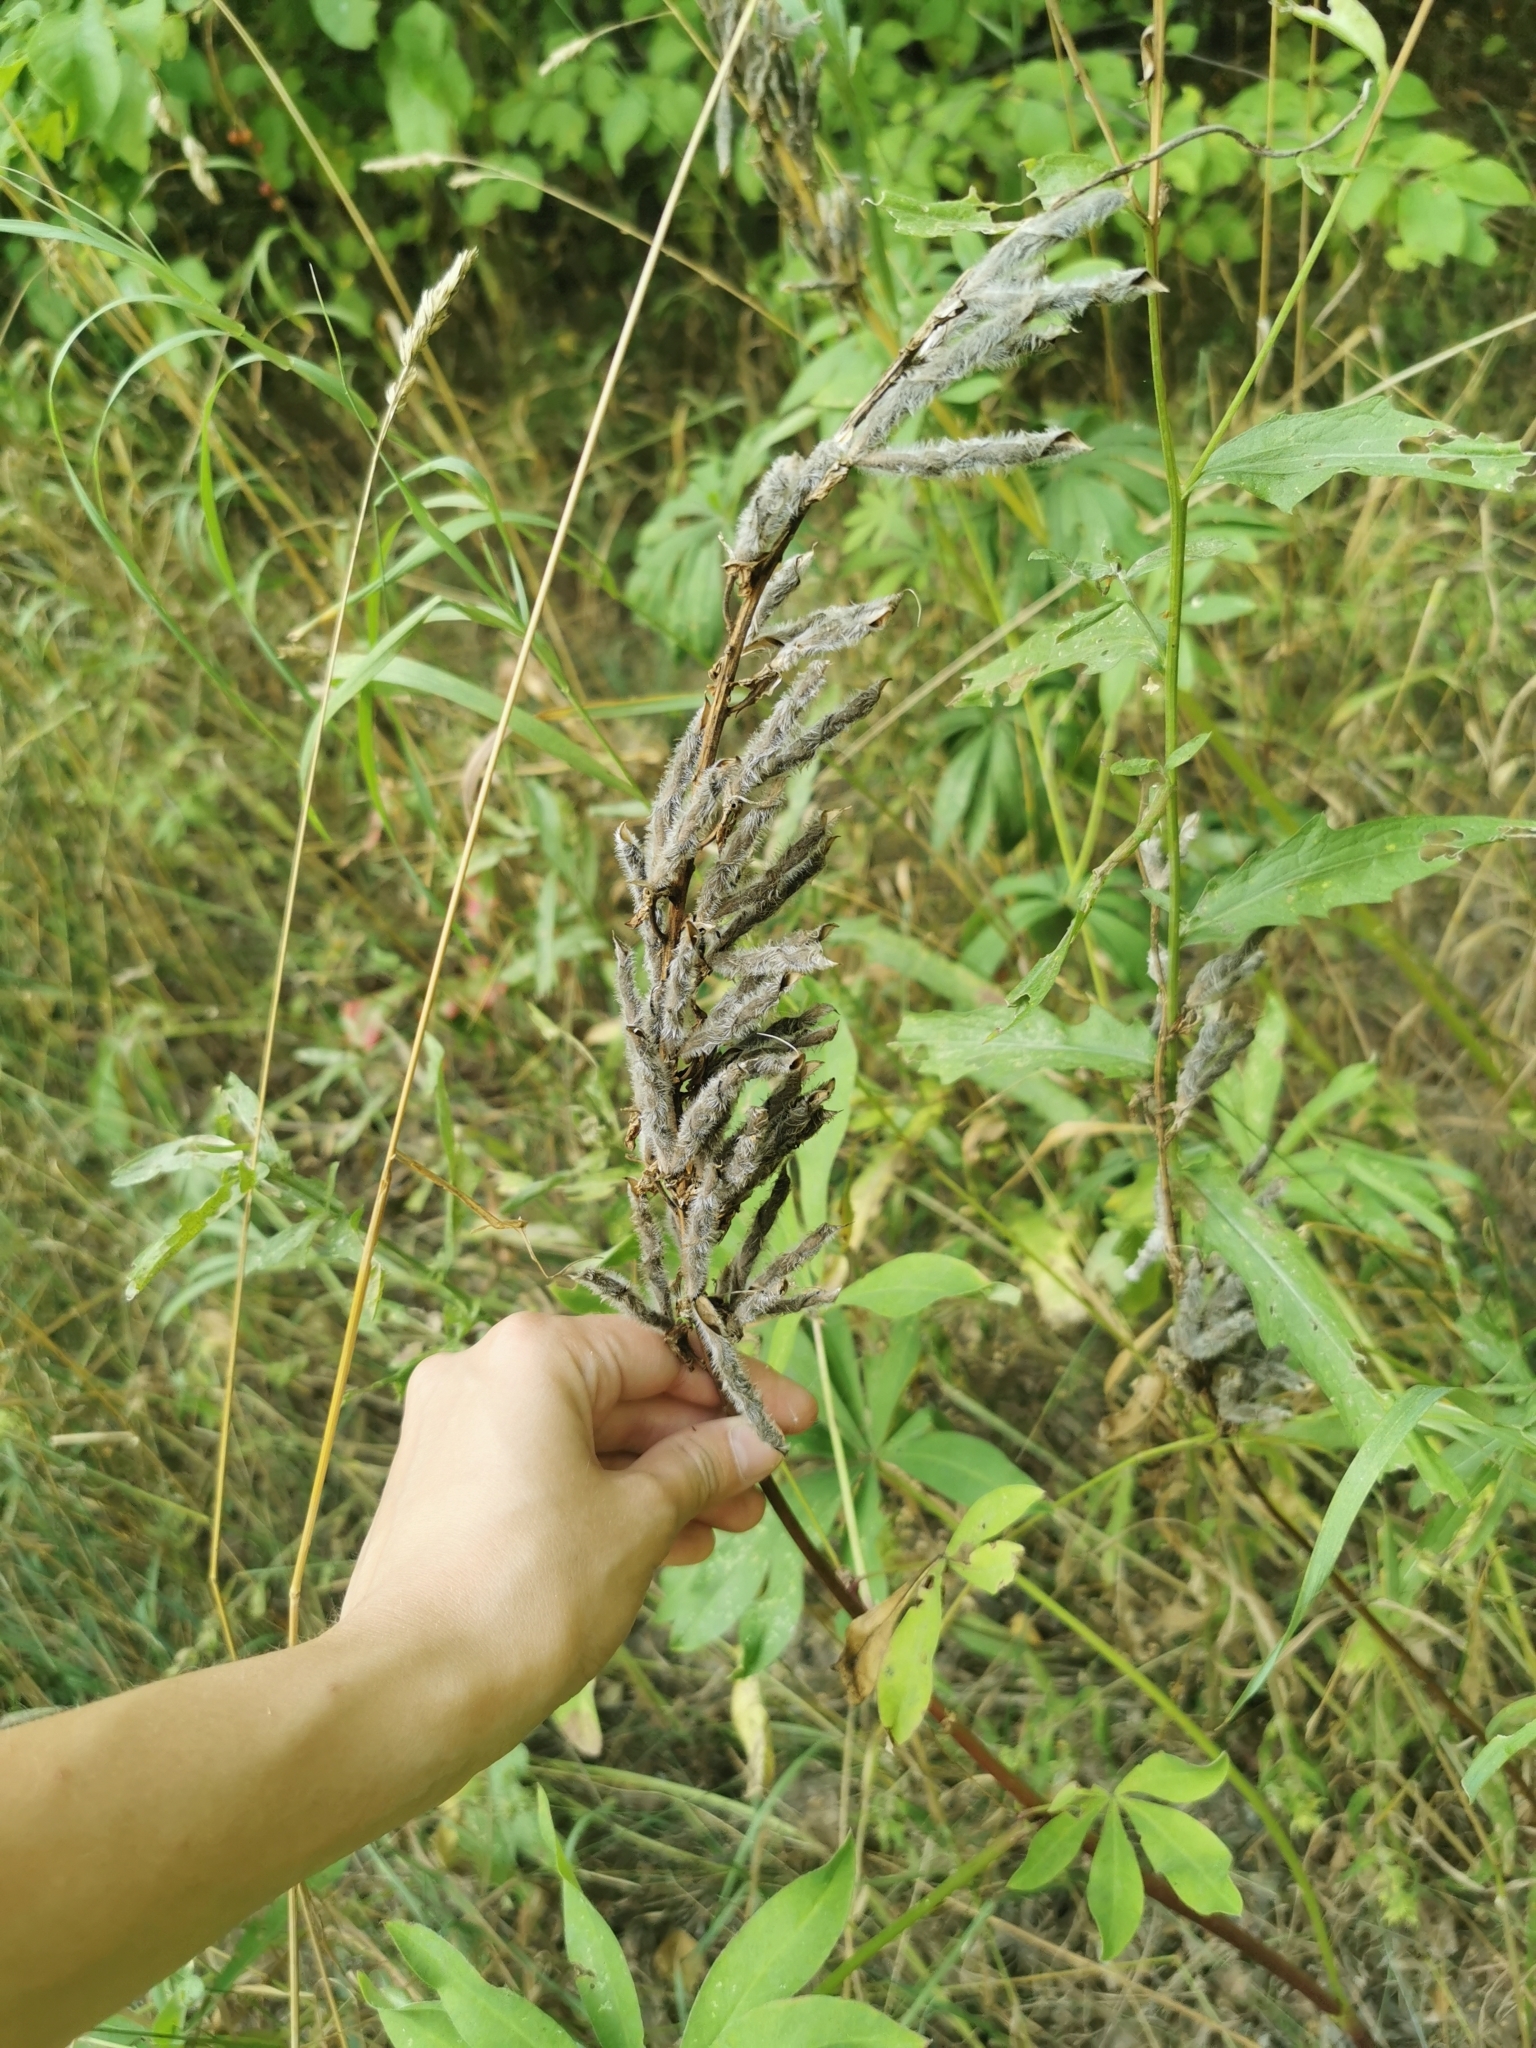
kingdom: Plantae
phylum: Tracheophyta
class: Magnoliopsida
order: Fabales
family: Fabaceae
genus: Lupinus
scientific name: Lupinus polyphyllus
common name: Garden lupin
